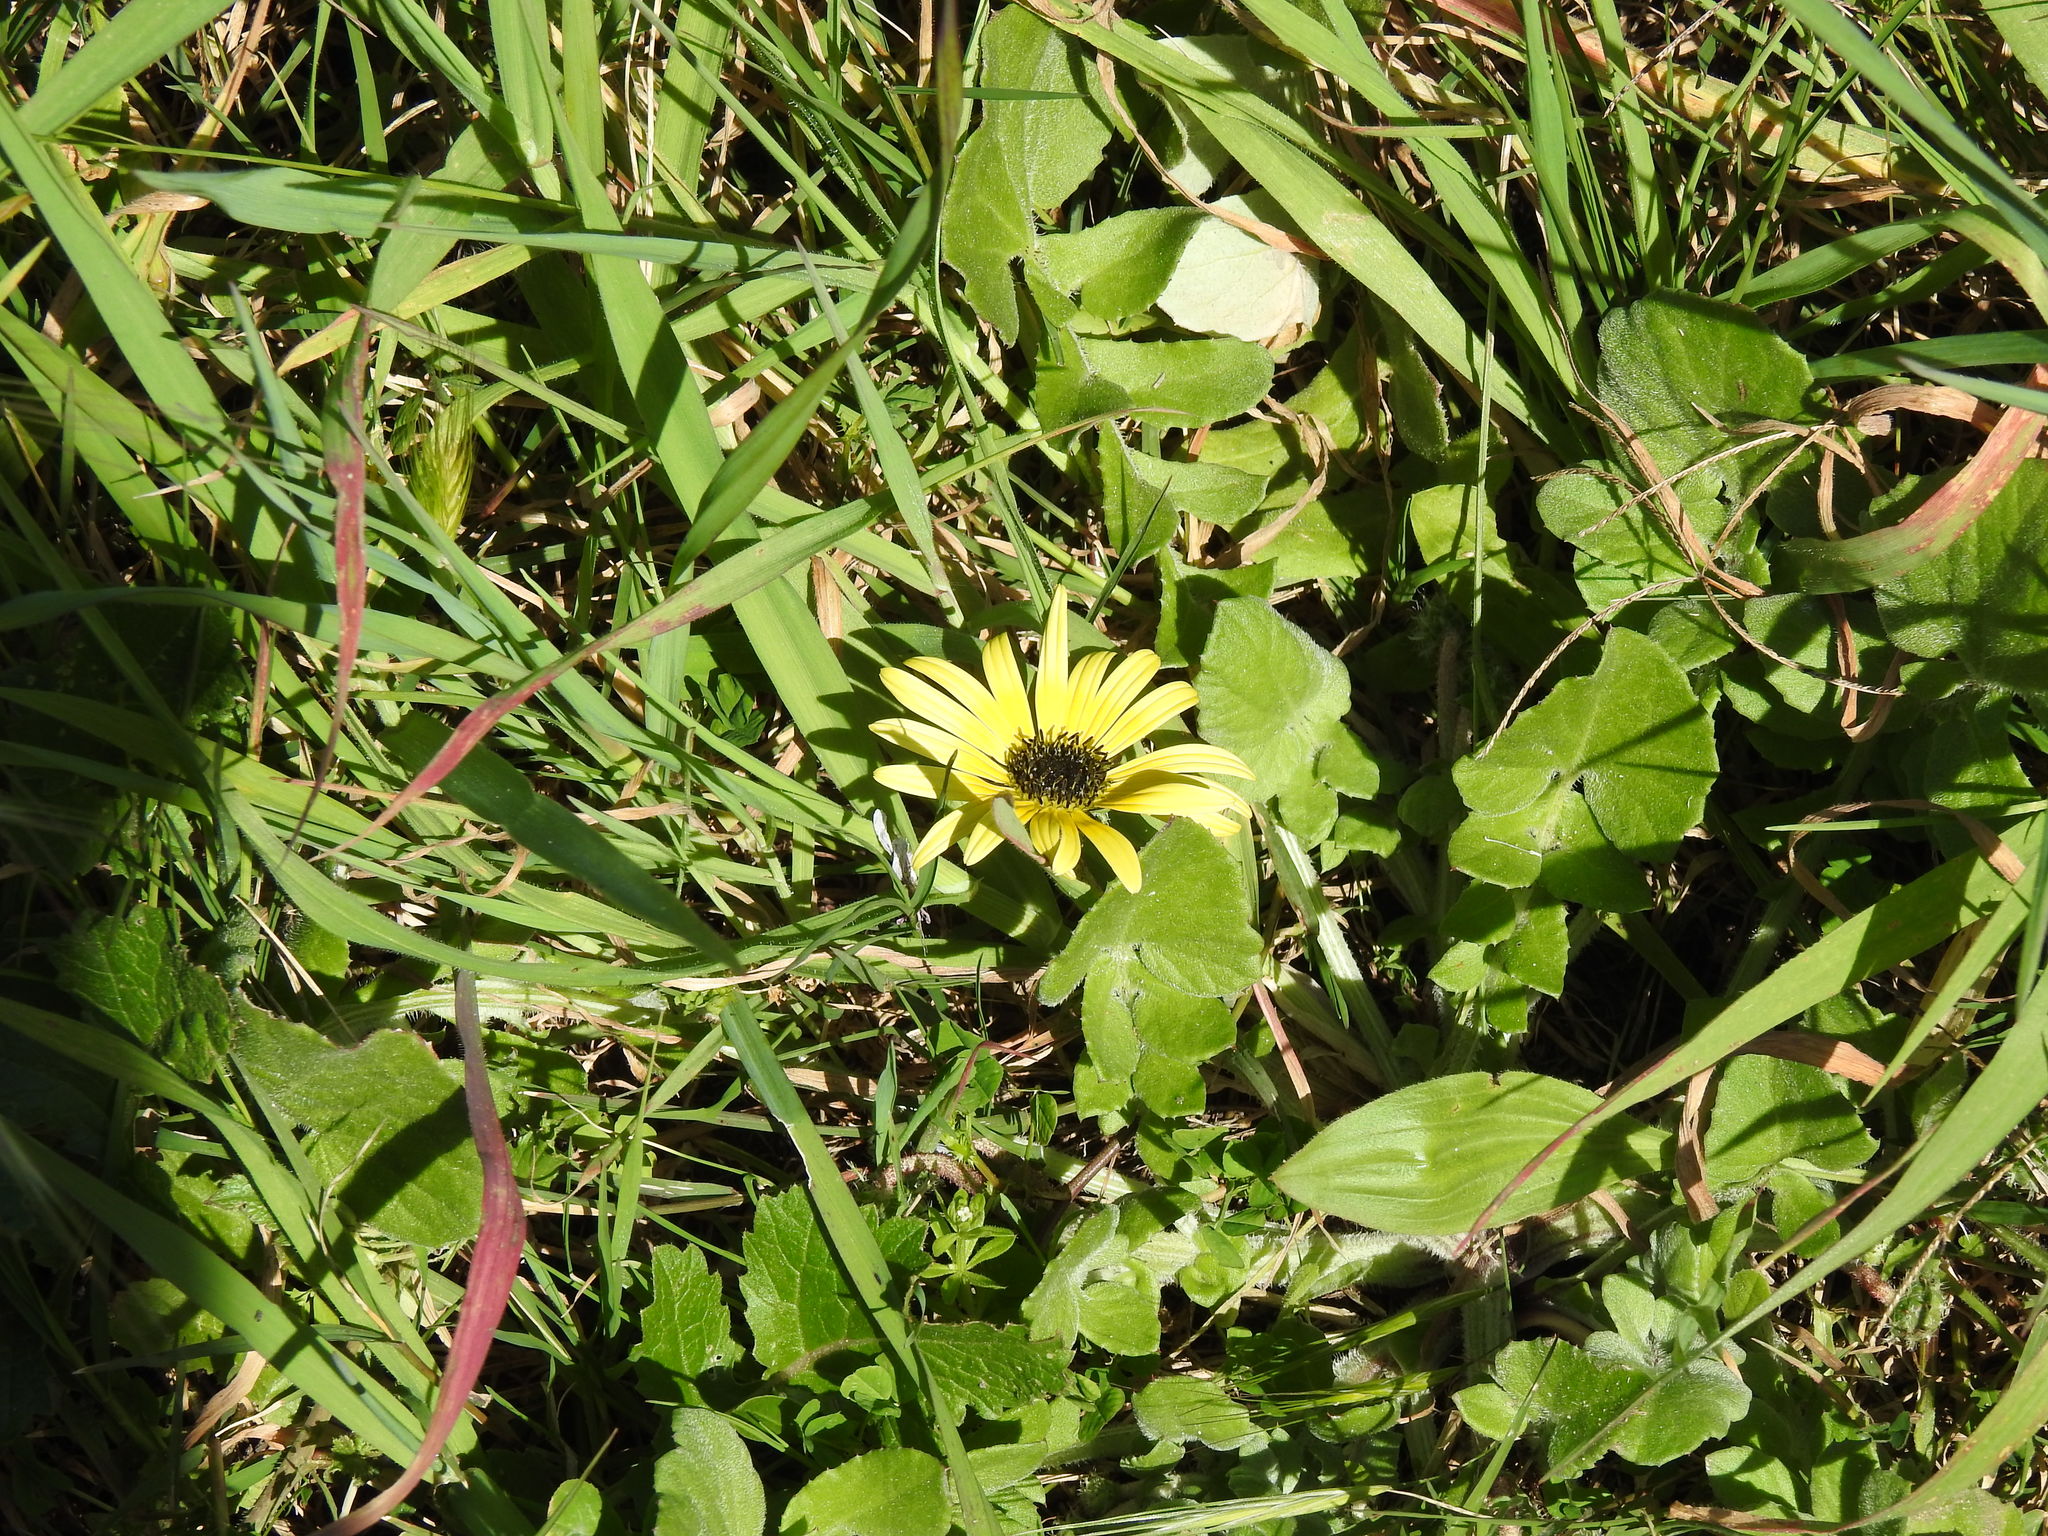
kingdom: Plantae
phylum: Tracheophyta
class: Magnoliopsida
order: Asterales
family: Asteraceae
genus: Arctotheca
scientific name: Arctotheca calendula
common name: Capeweed
